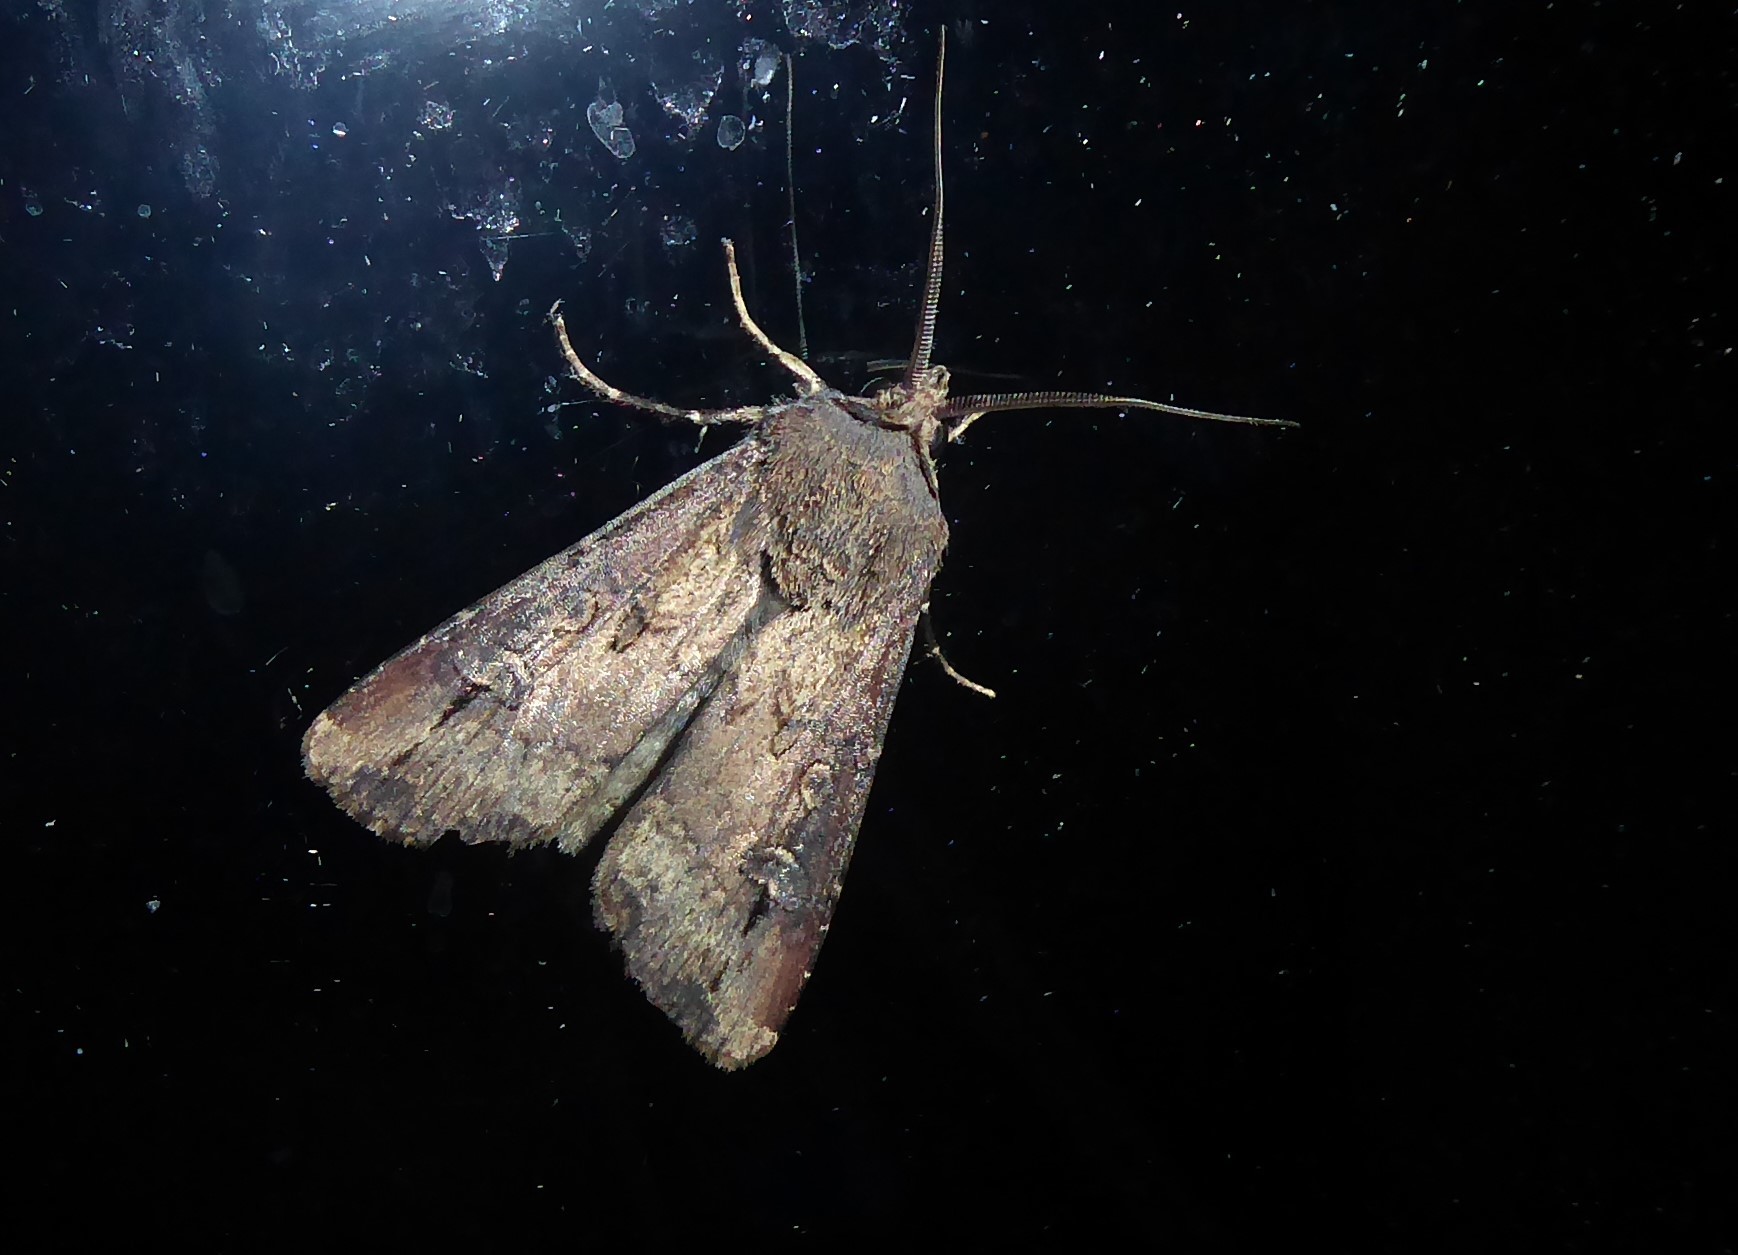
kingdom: Animalia
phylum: Arthropoda
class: Insecta
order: Lepidoptera
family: Noctuidae
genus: Agrotis
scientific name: Agrotis ipsilon
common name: Dark sword-grass
